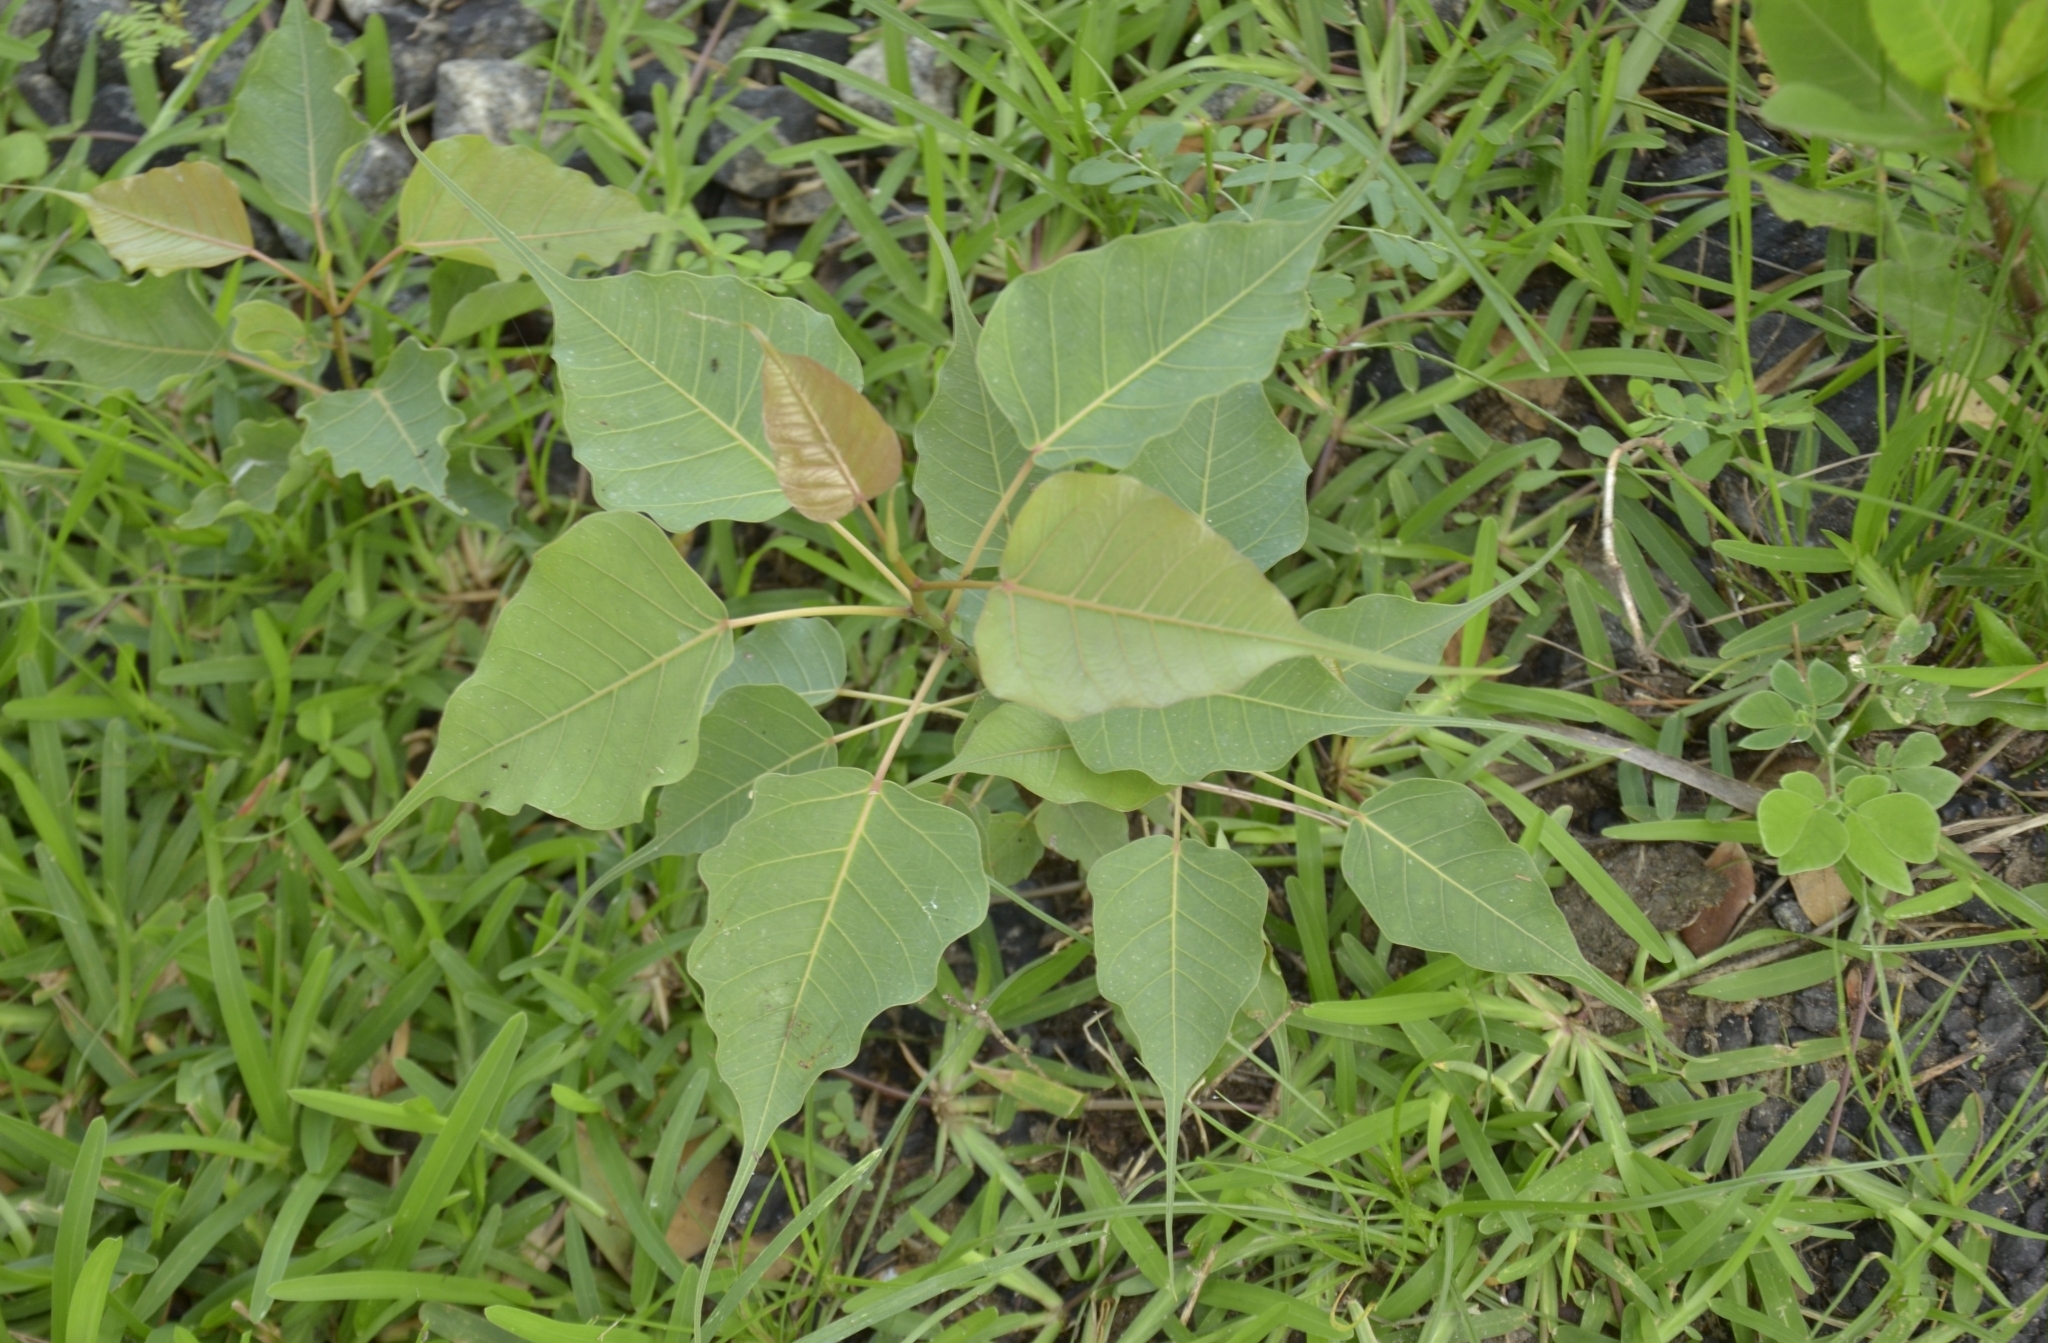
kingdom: Plantae
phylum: Tracheophyta
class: Magnoliopsida
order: Rosales
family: Moraceae
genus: Ficus
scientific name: Ficus religiosa
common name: Bodhi tree
